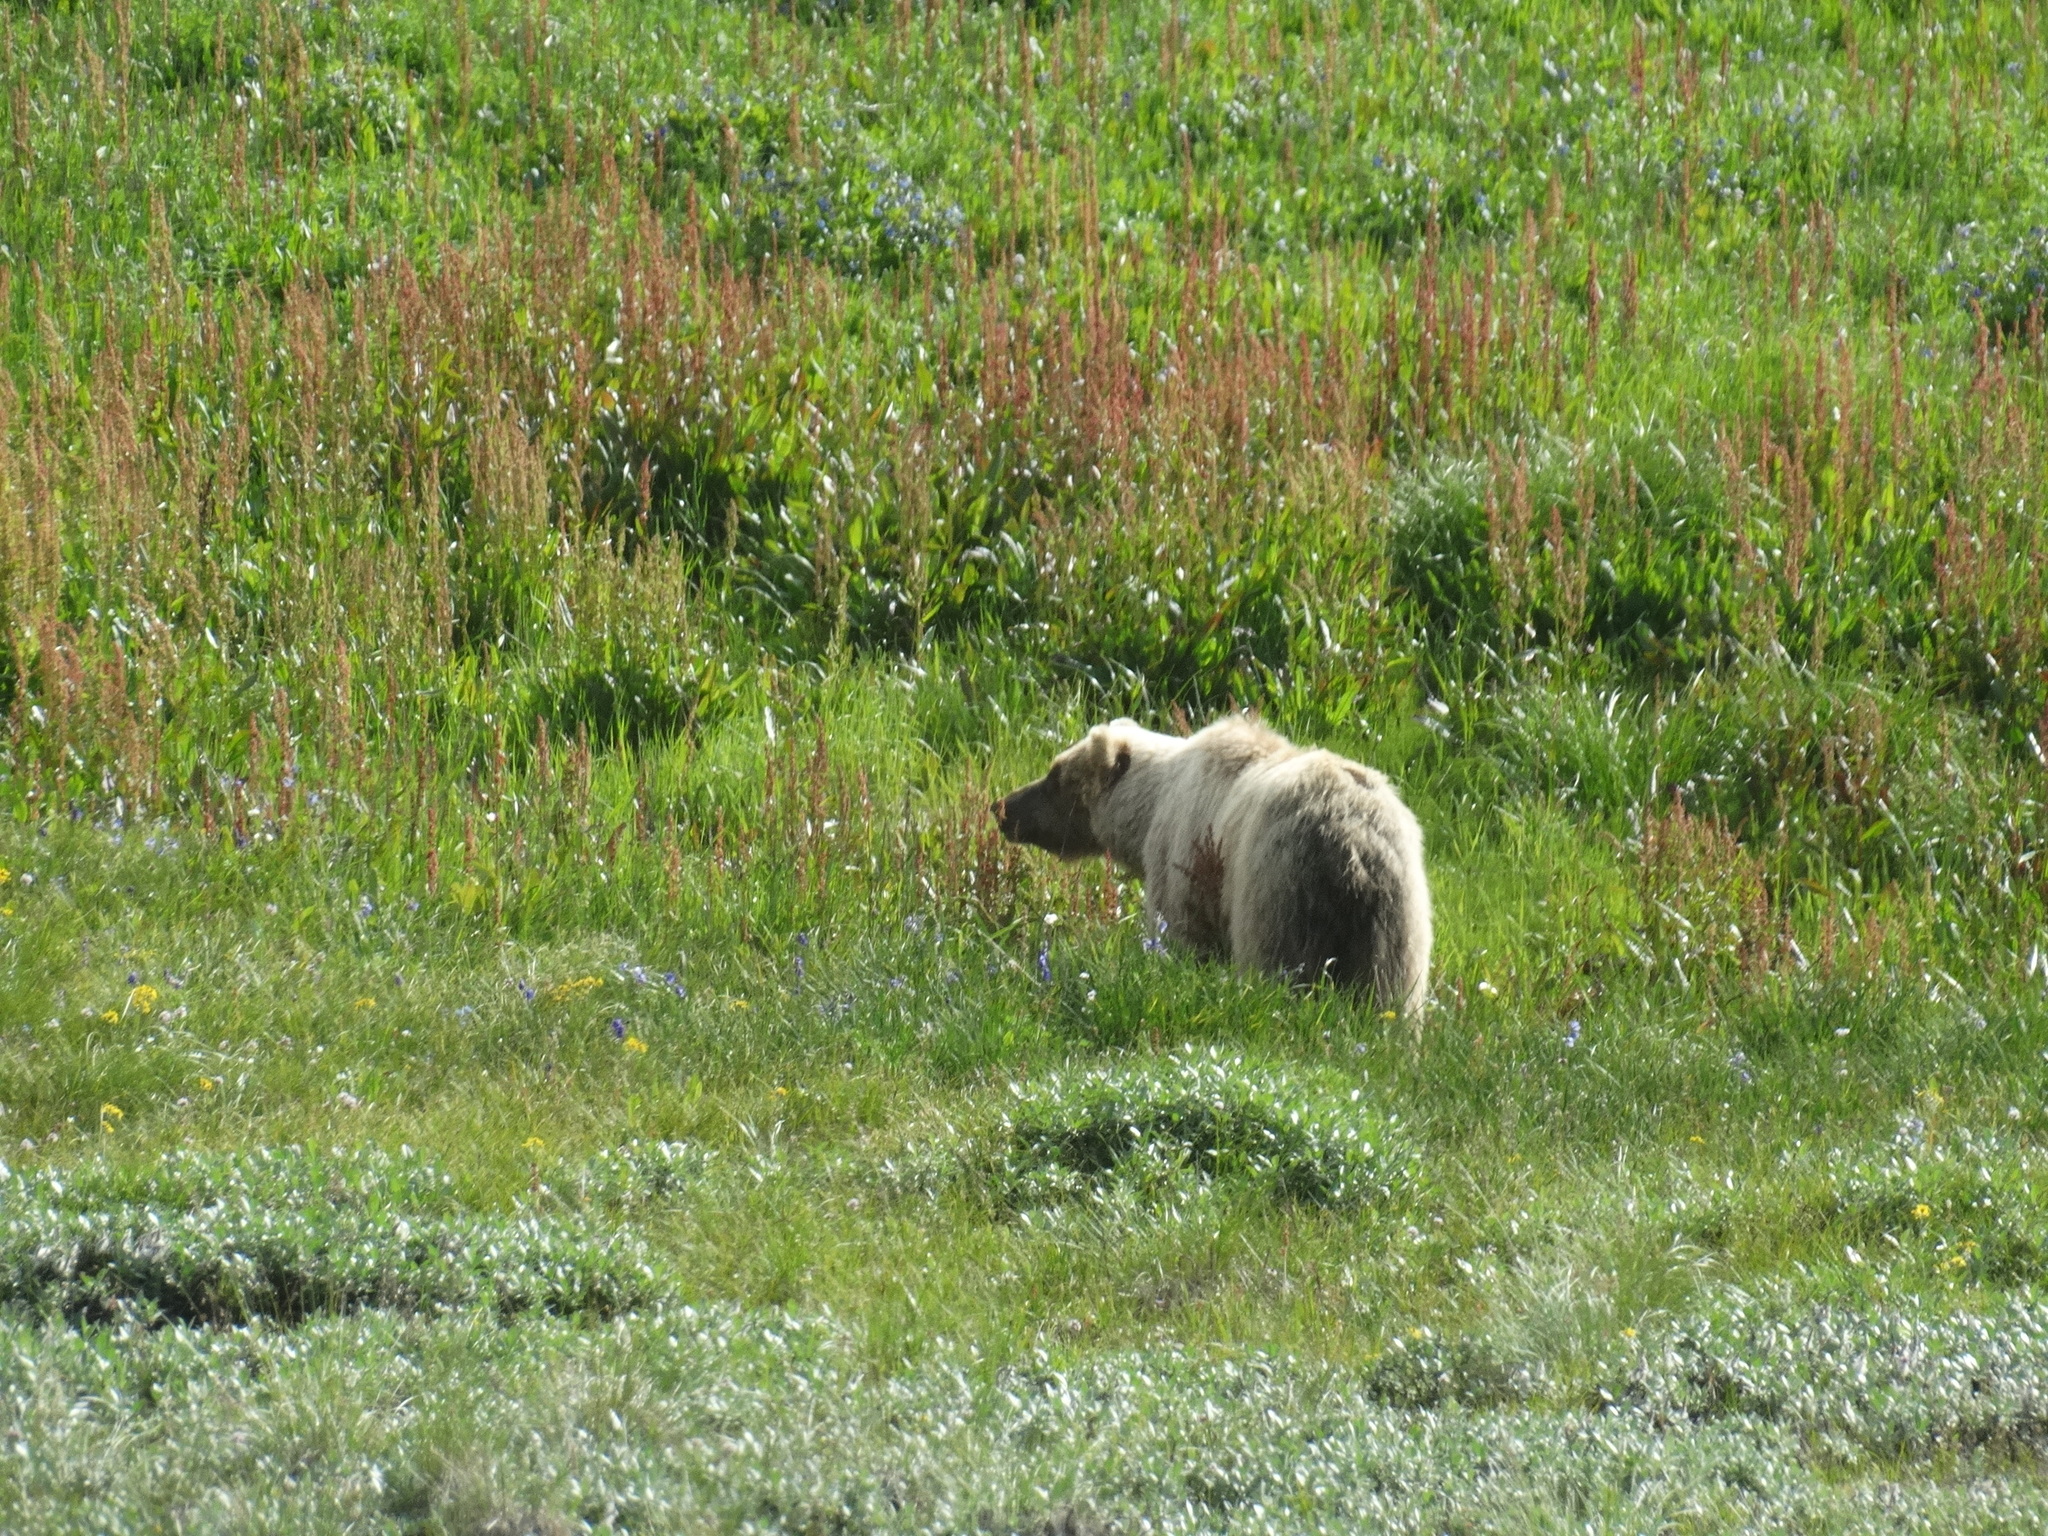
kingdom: Animalia
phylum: Chordata
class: Mammalia
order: Carnivora
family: Ursidae
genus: Ursus
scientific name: Ursus arctos
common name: Brown bear
